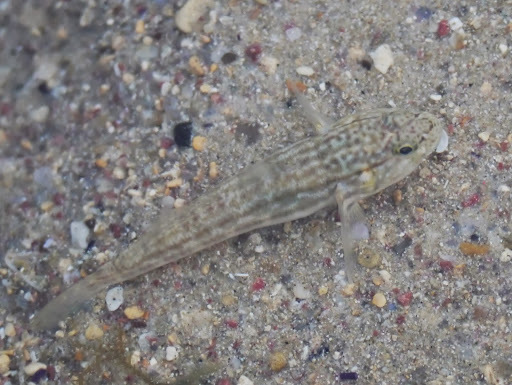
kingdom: Animalia
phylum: Chordata
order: Perciformes
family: Gobiidae
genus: Bathygobius
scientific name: Bathygobius casamancus
